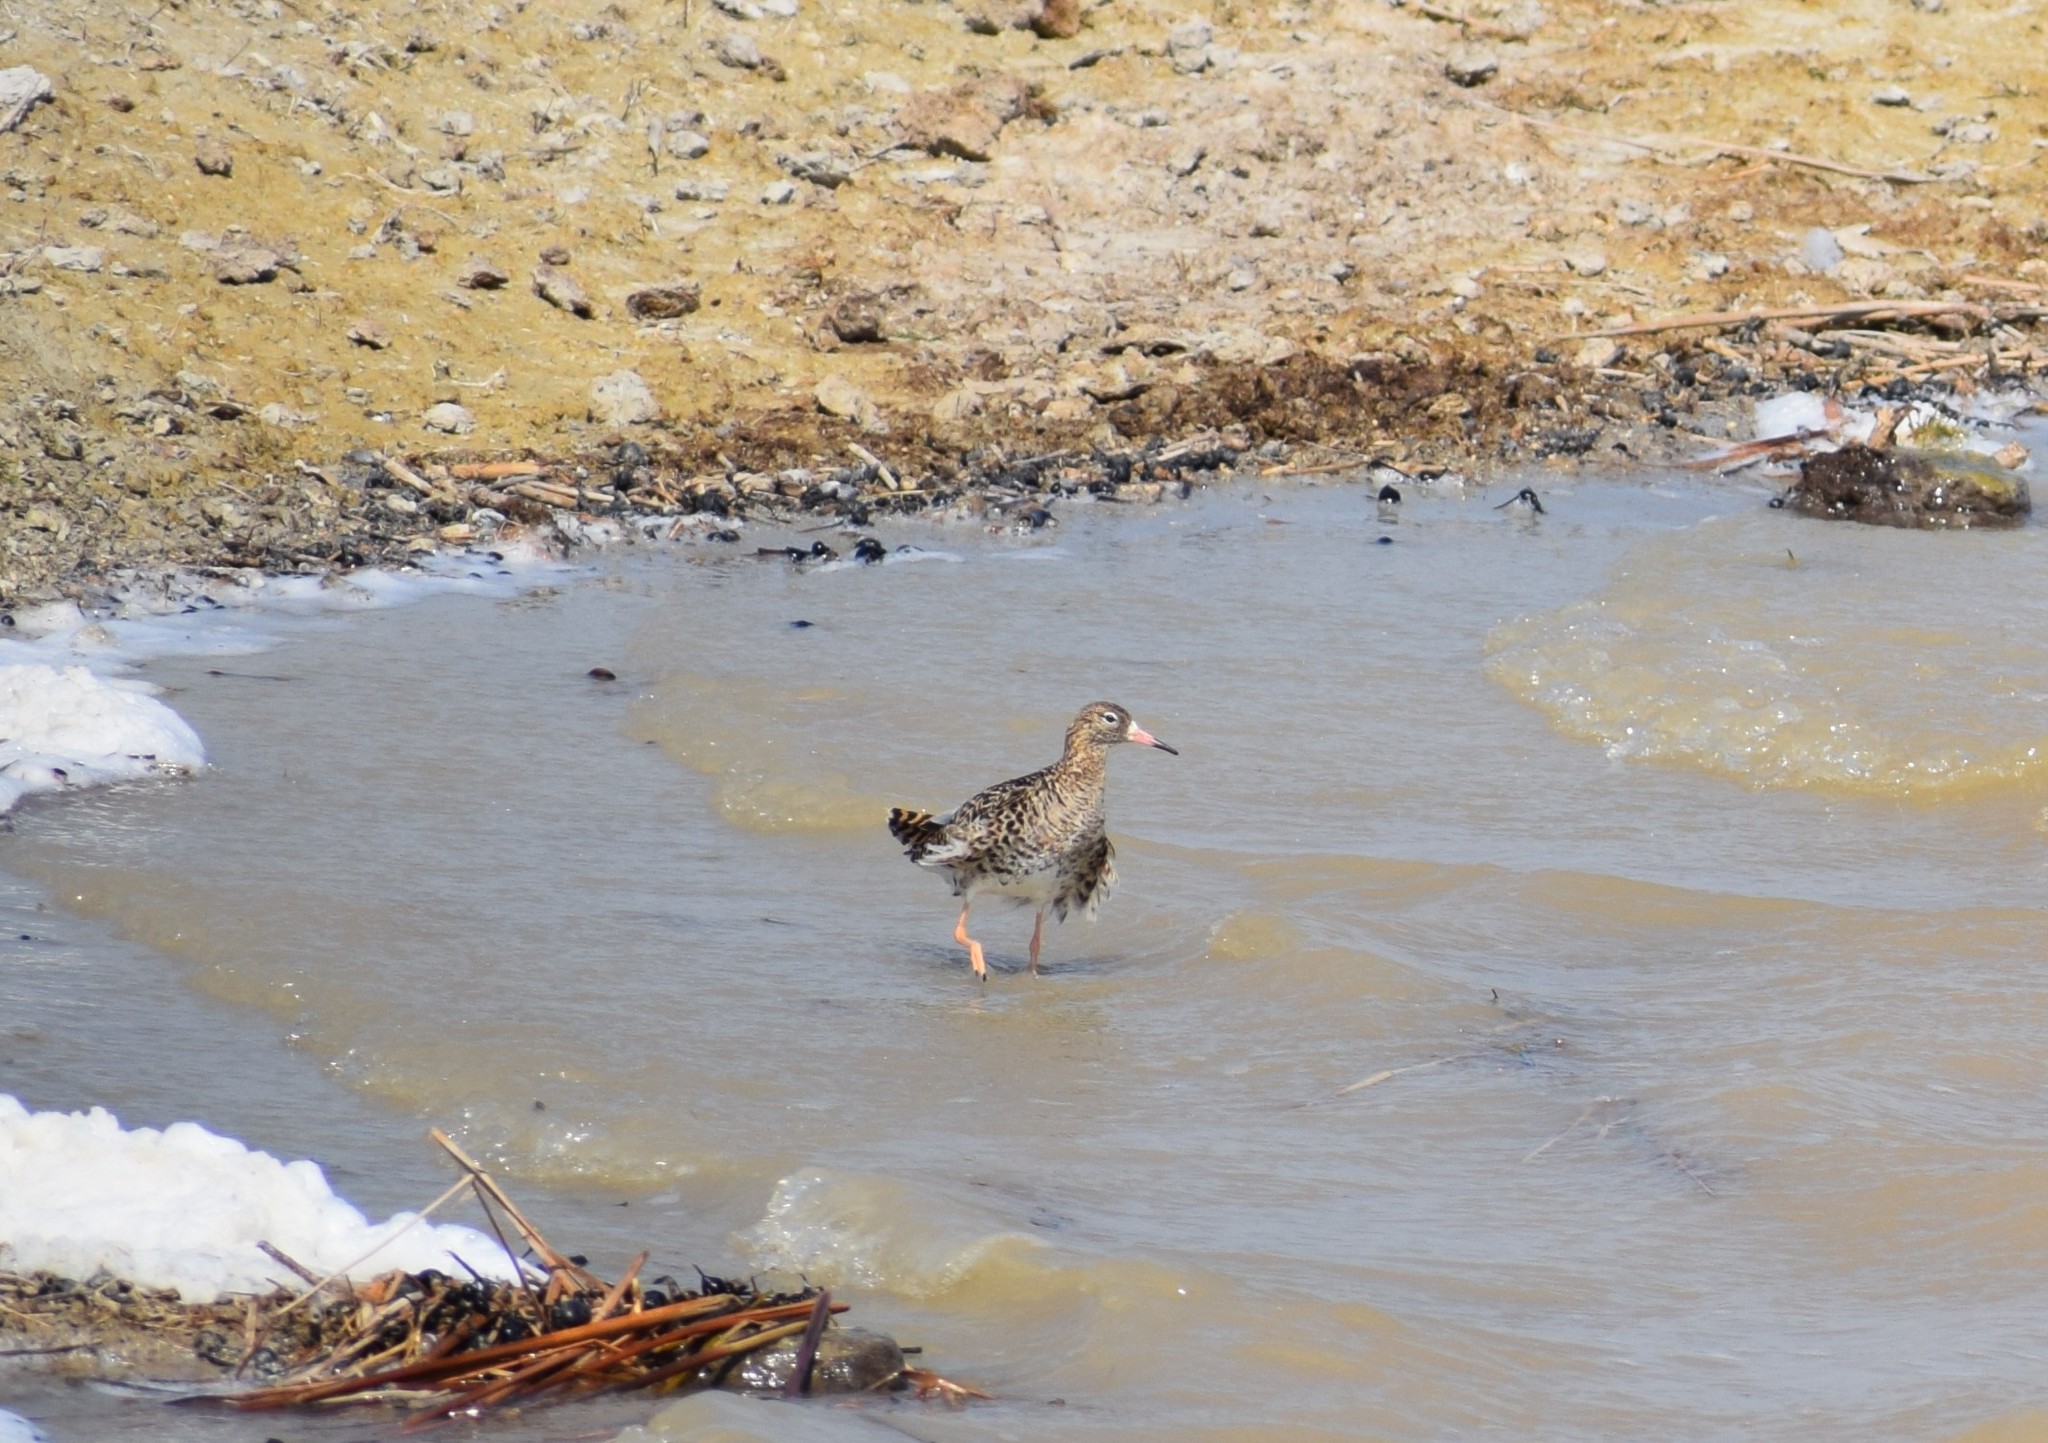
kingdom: Animalia
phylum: Chordata
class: Aves
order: Charadriiformes
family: Scolopacidae
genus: Calidris
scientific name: Calidris pugnax
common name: Ruff
